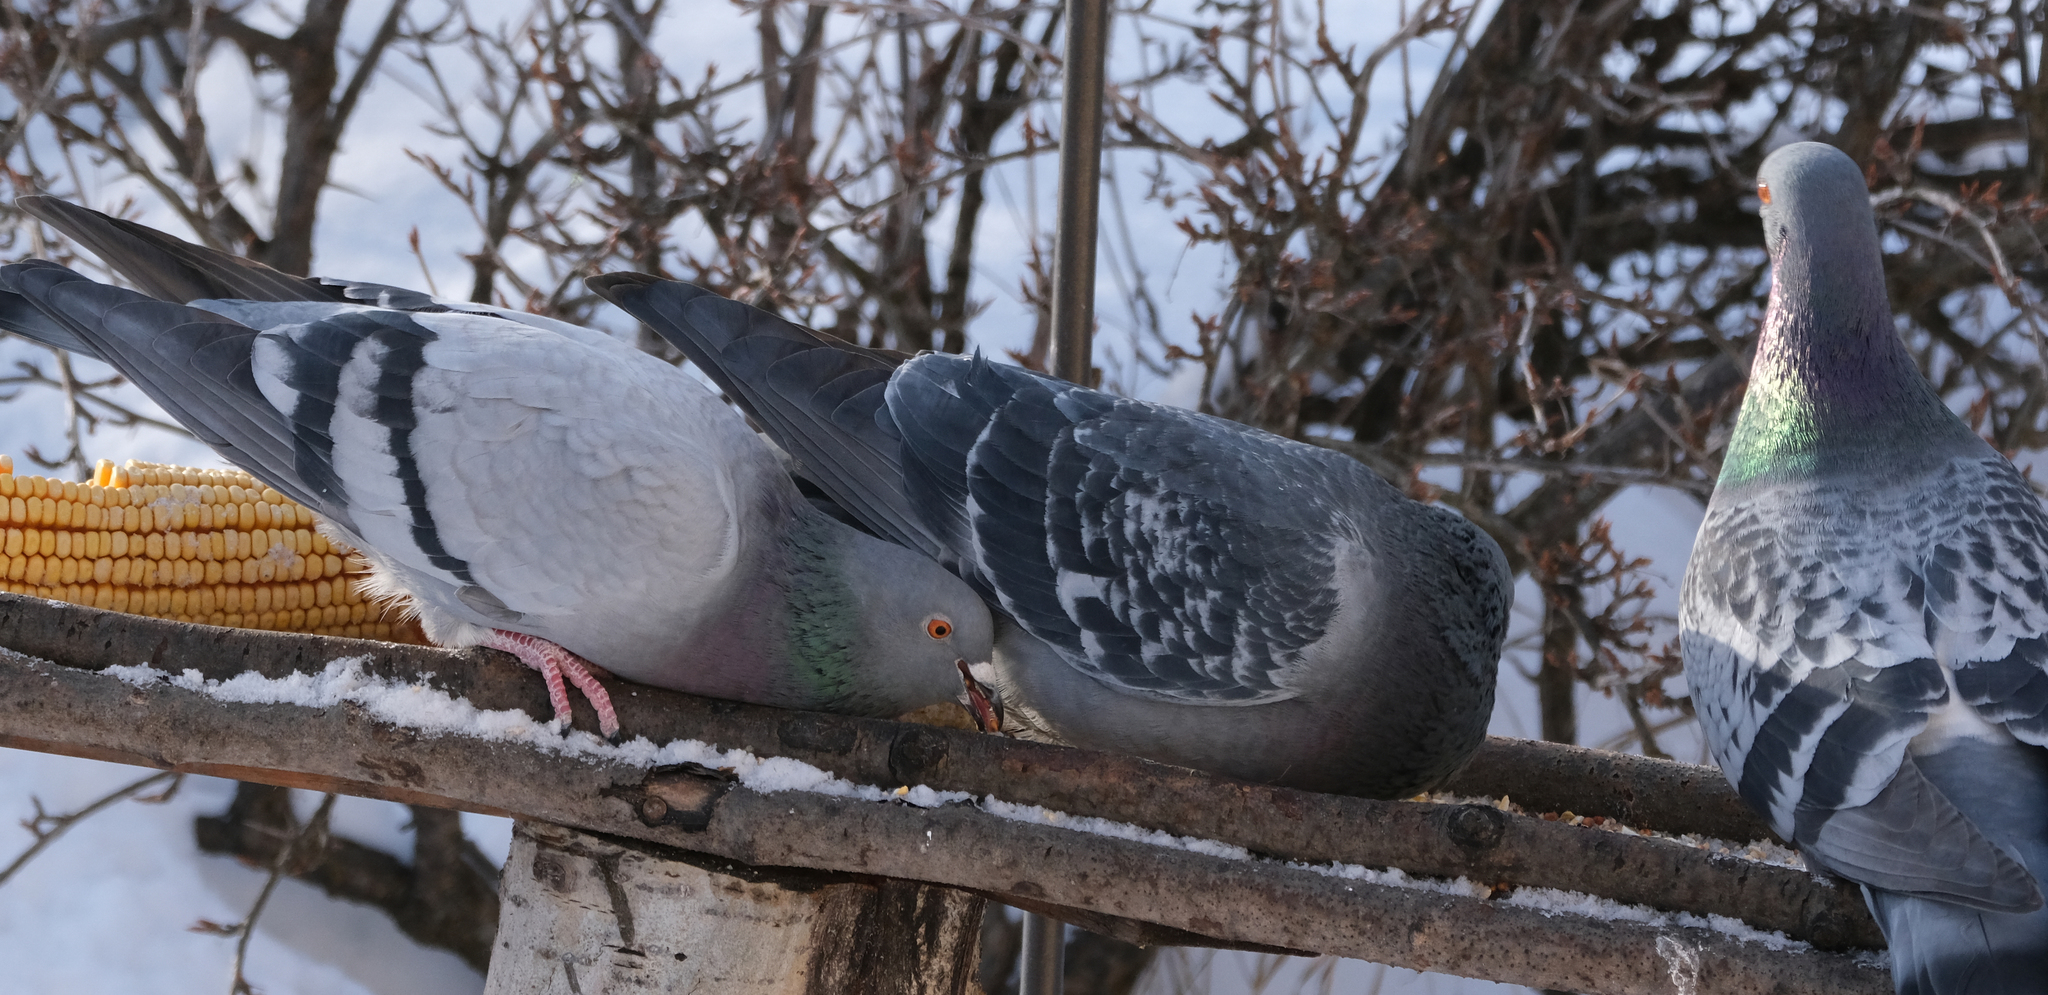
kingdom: Animalia
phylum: Chordata
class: Aves
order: Columbiformes
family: Columbidae
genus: Columba
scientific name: Columba livia
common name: Rock pigeon
